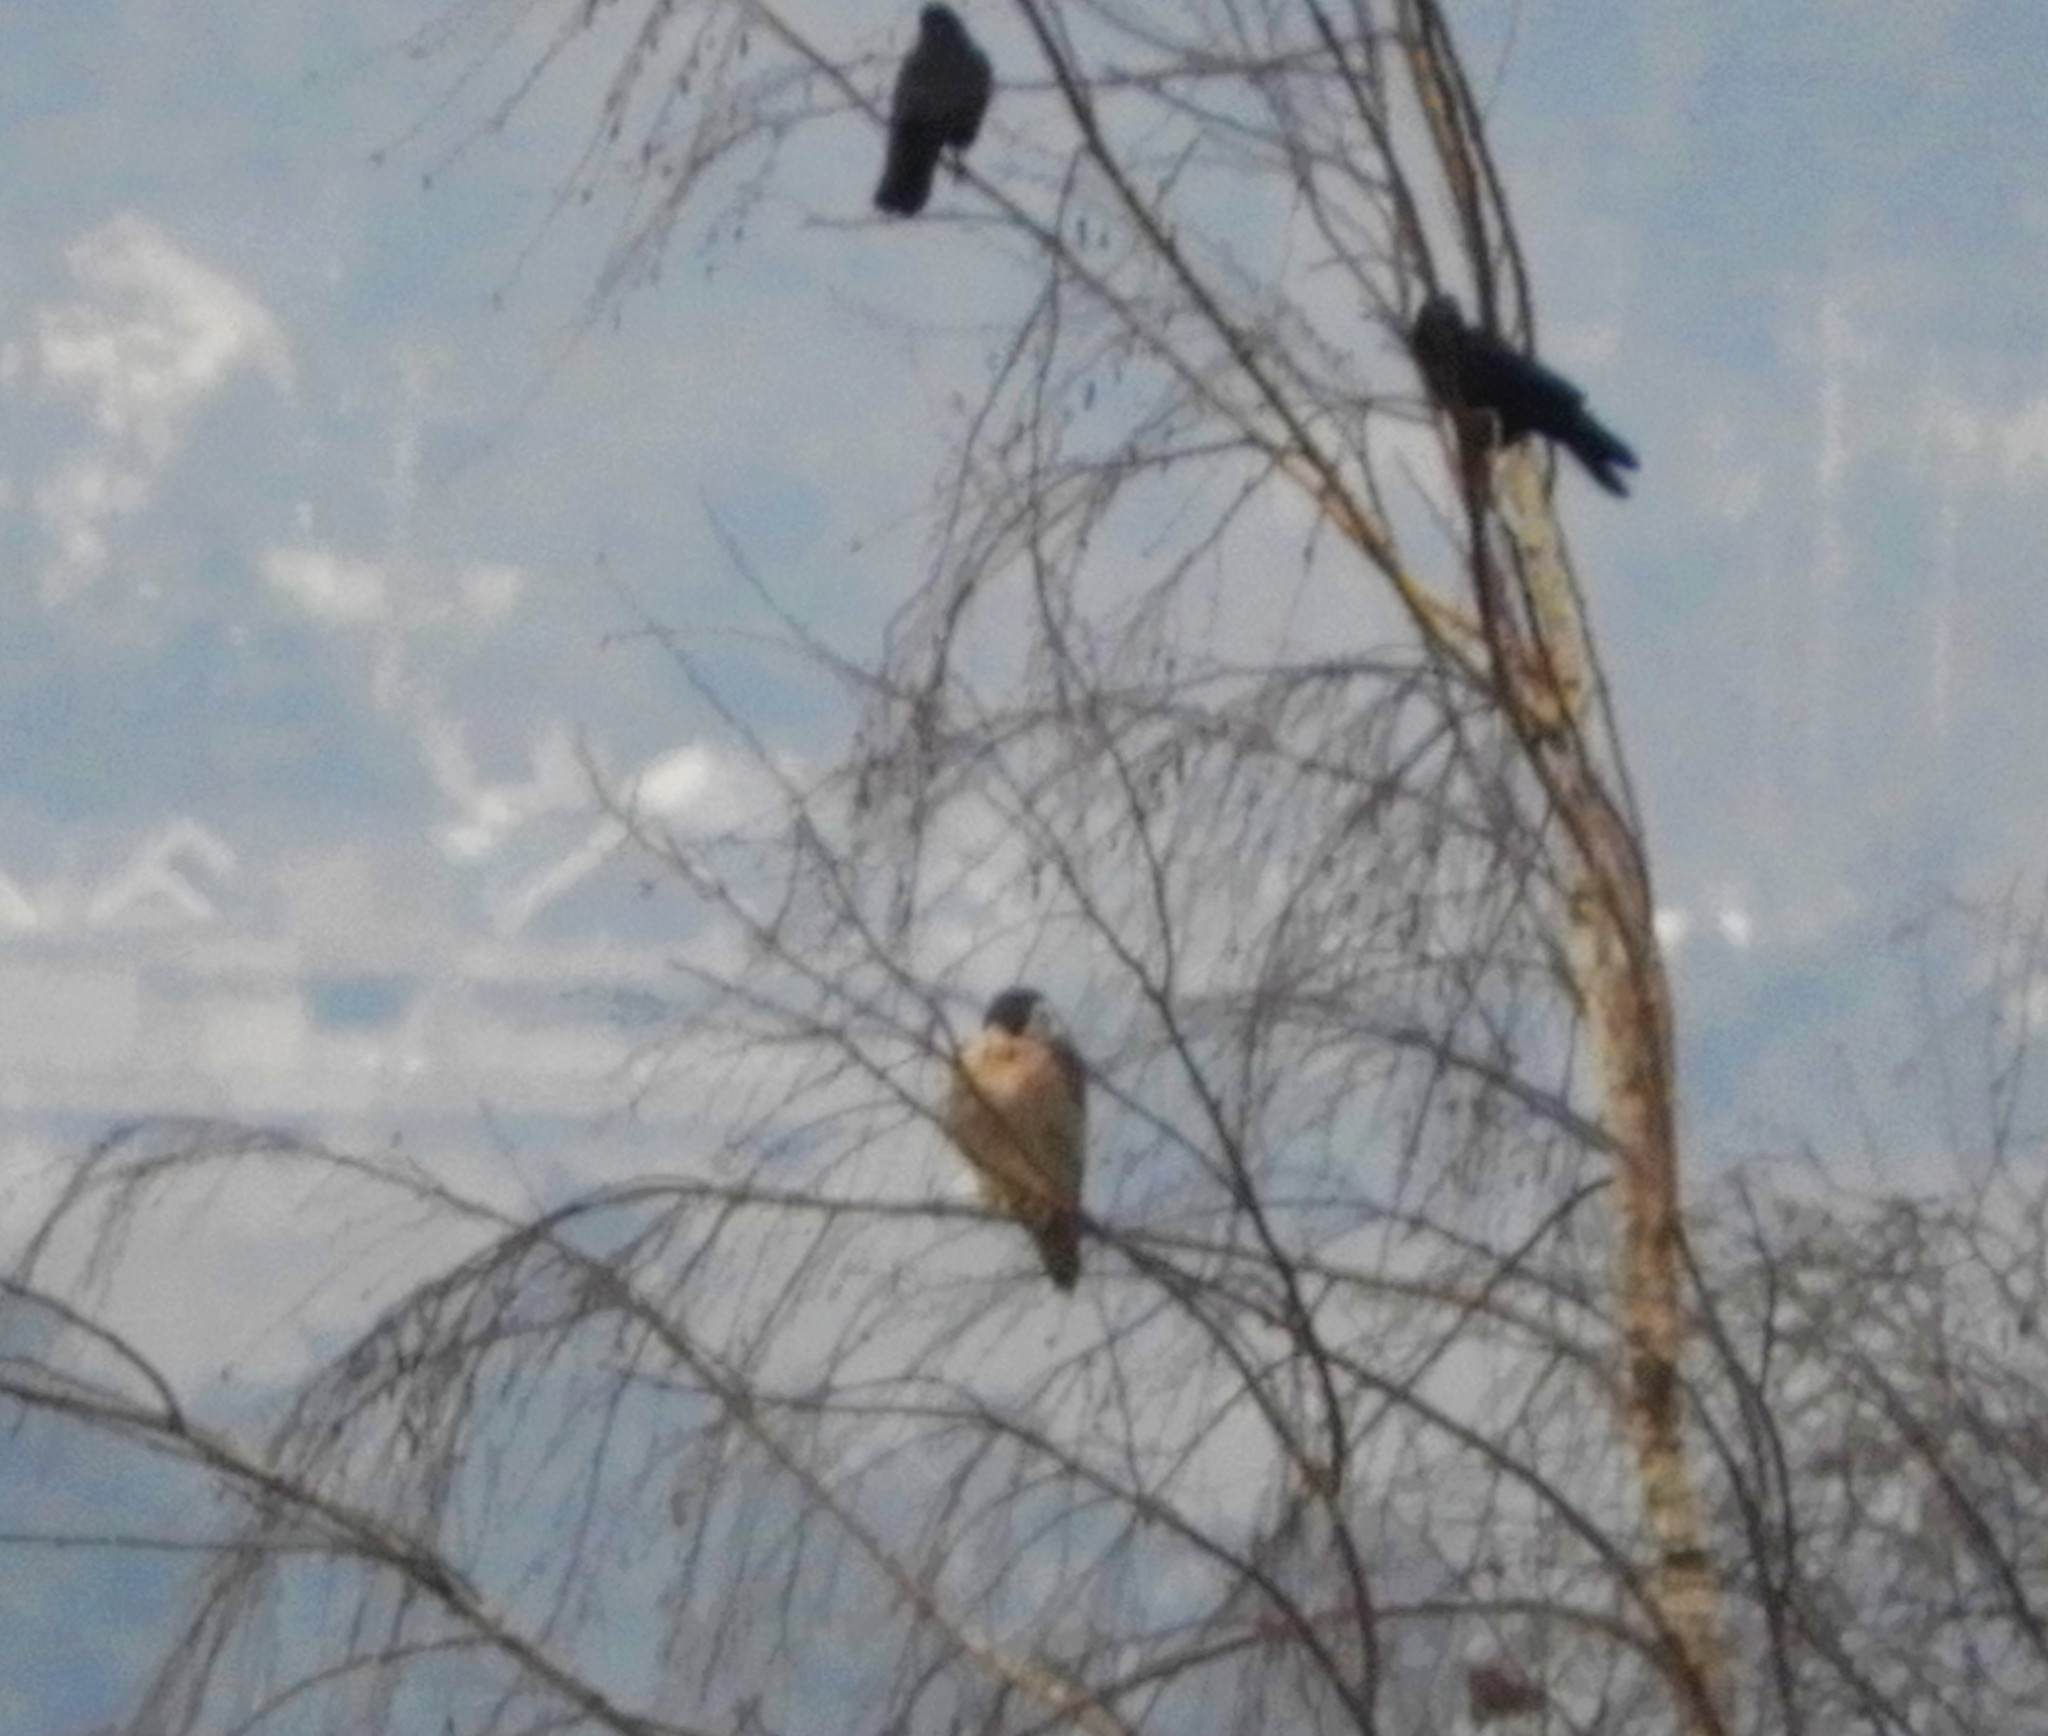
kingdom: Animalia
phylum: Chordata
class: Aves
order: Falconiformes
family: Falconidae
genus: Falco
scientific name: Falco peregrinus
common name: Peregrine falcon
